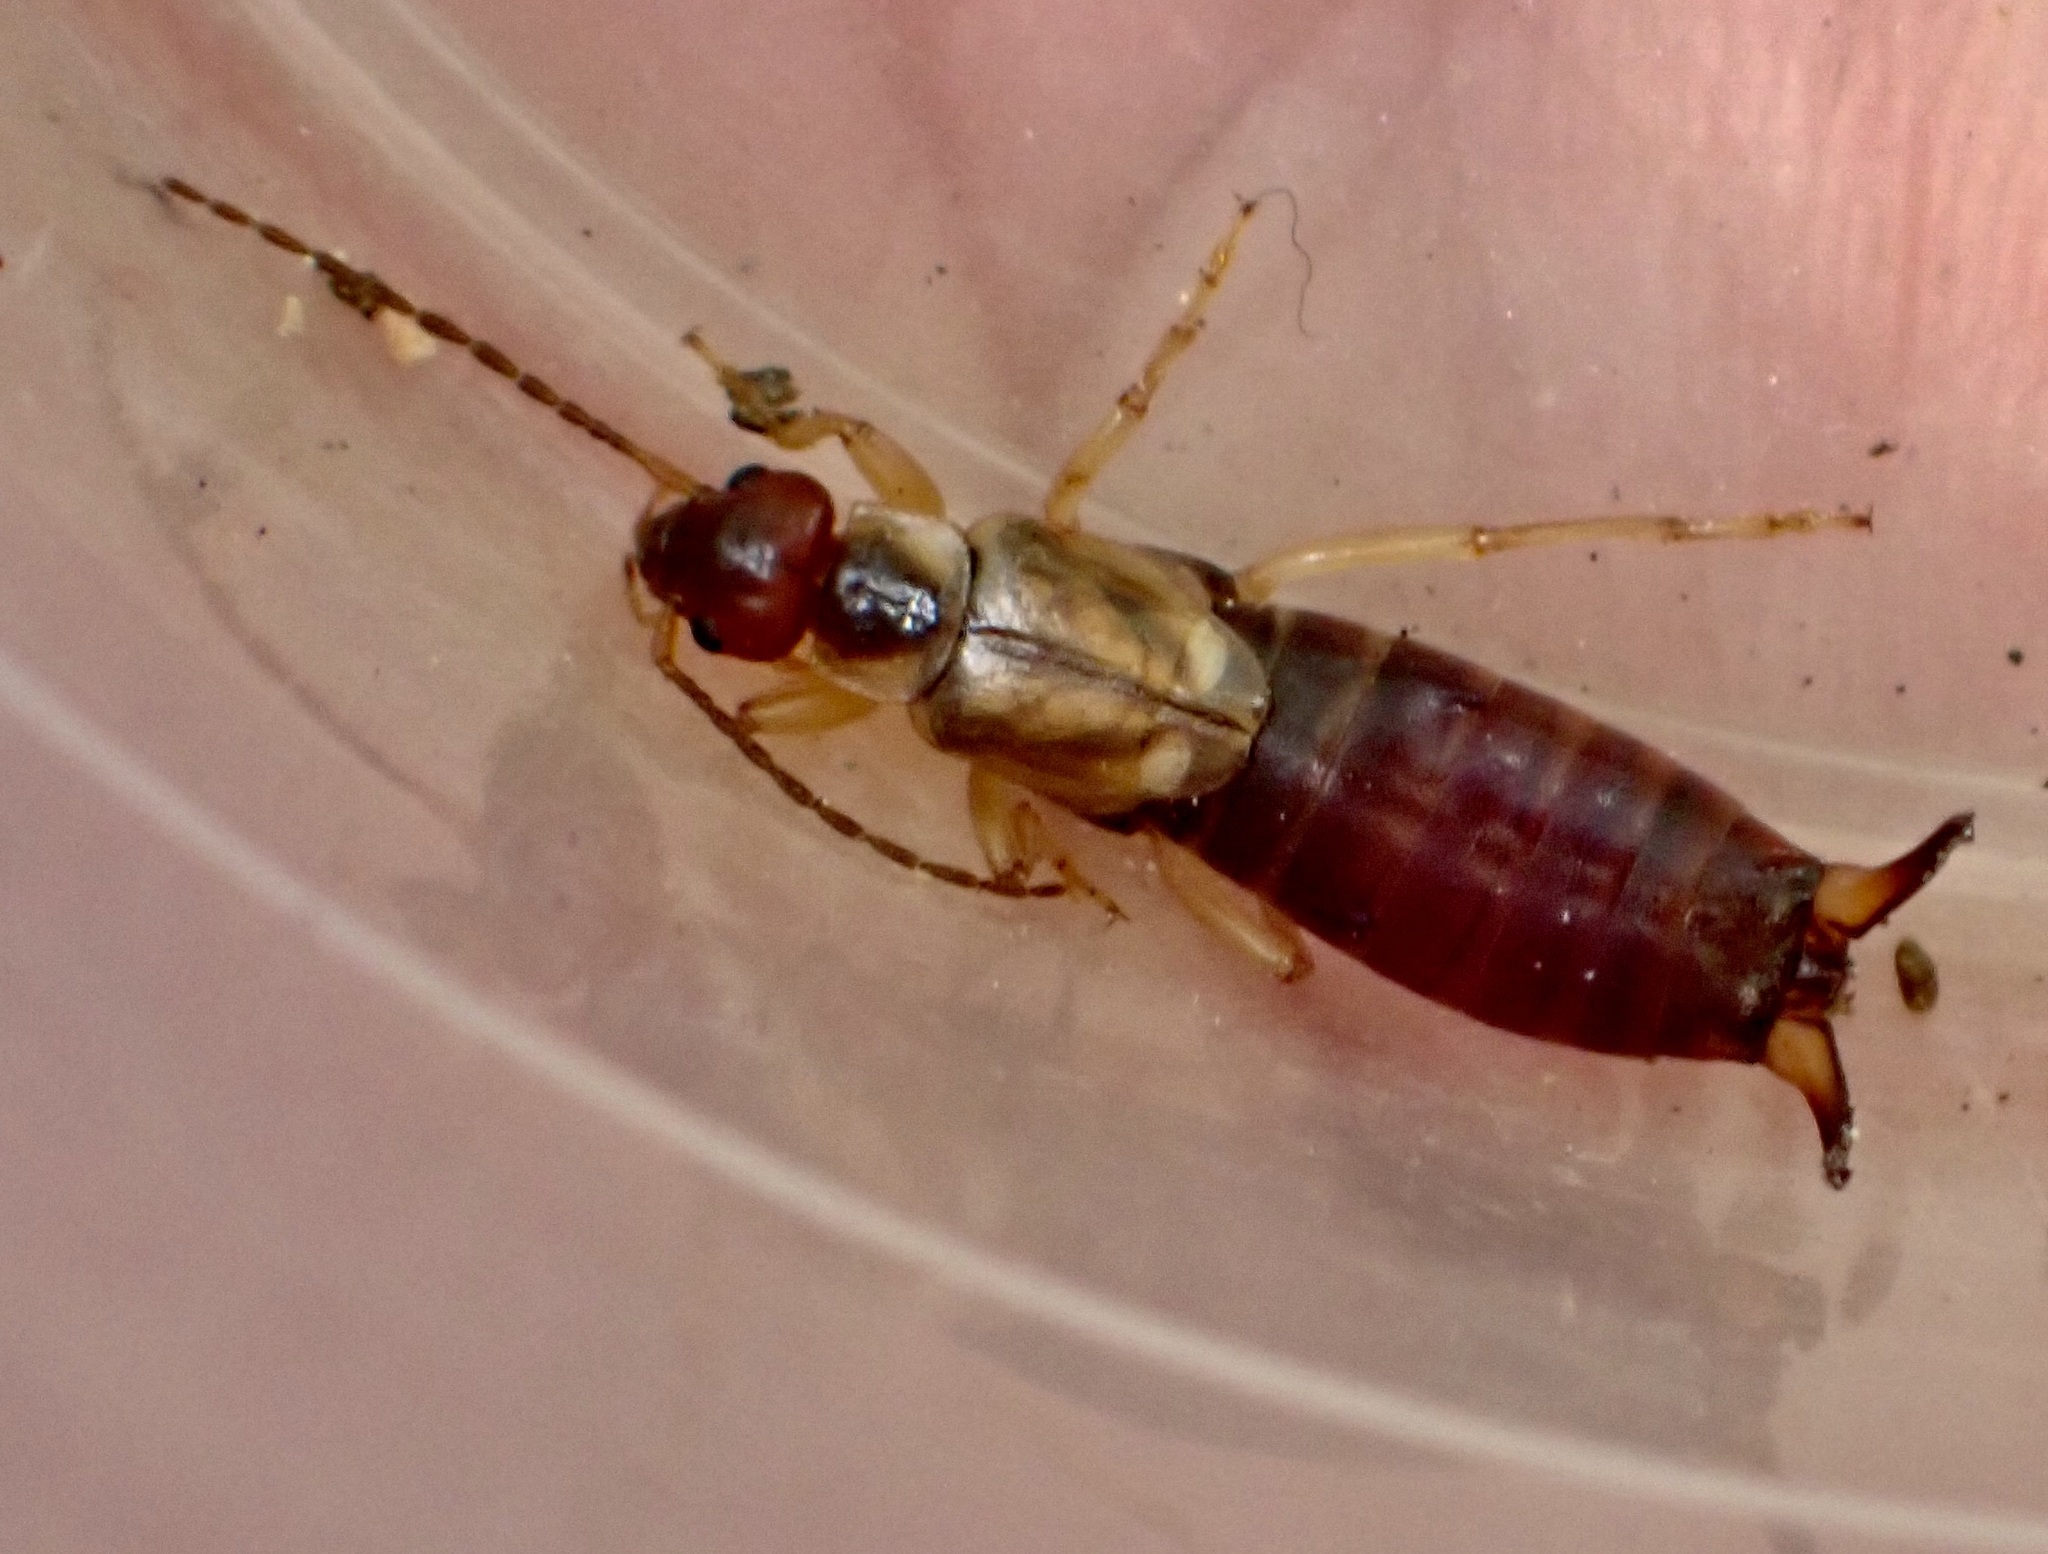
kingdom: Animalia
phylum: Arthropoda
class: Insecta
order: Dermaptera
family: Forficulidae
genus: Forficula
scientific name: Forficula
